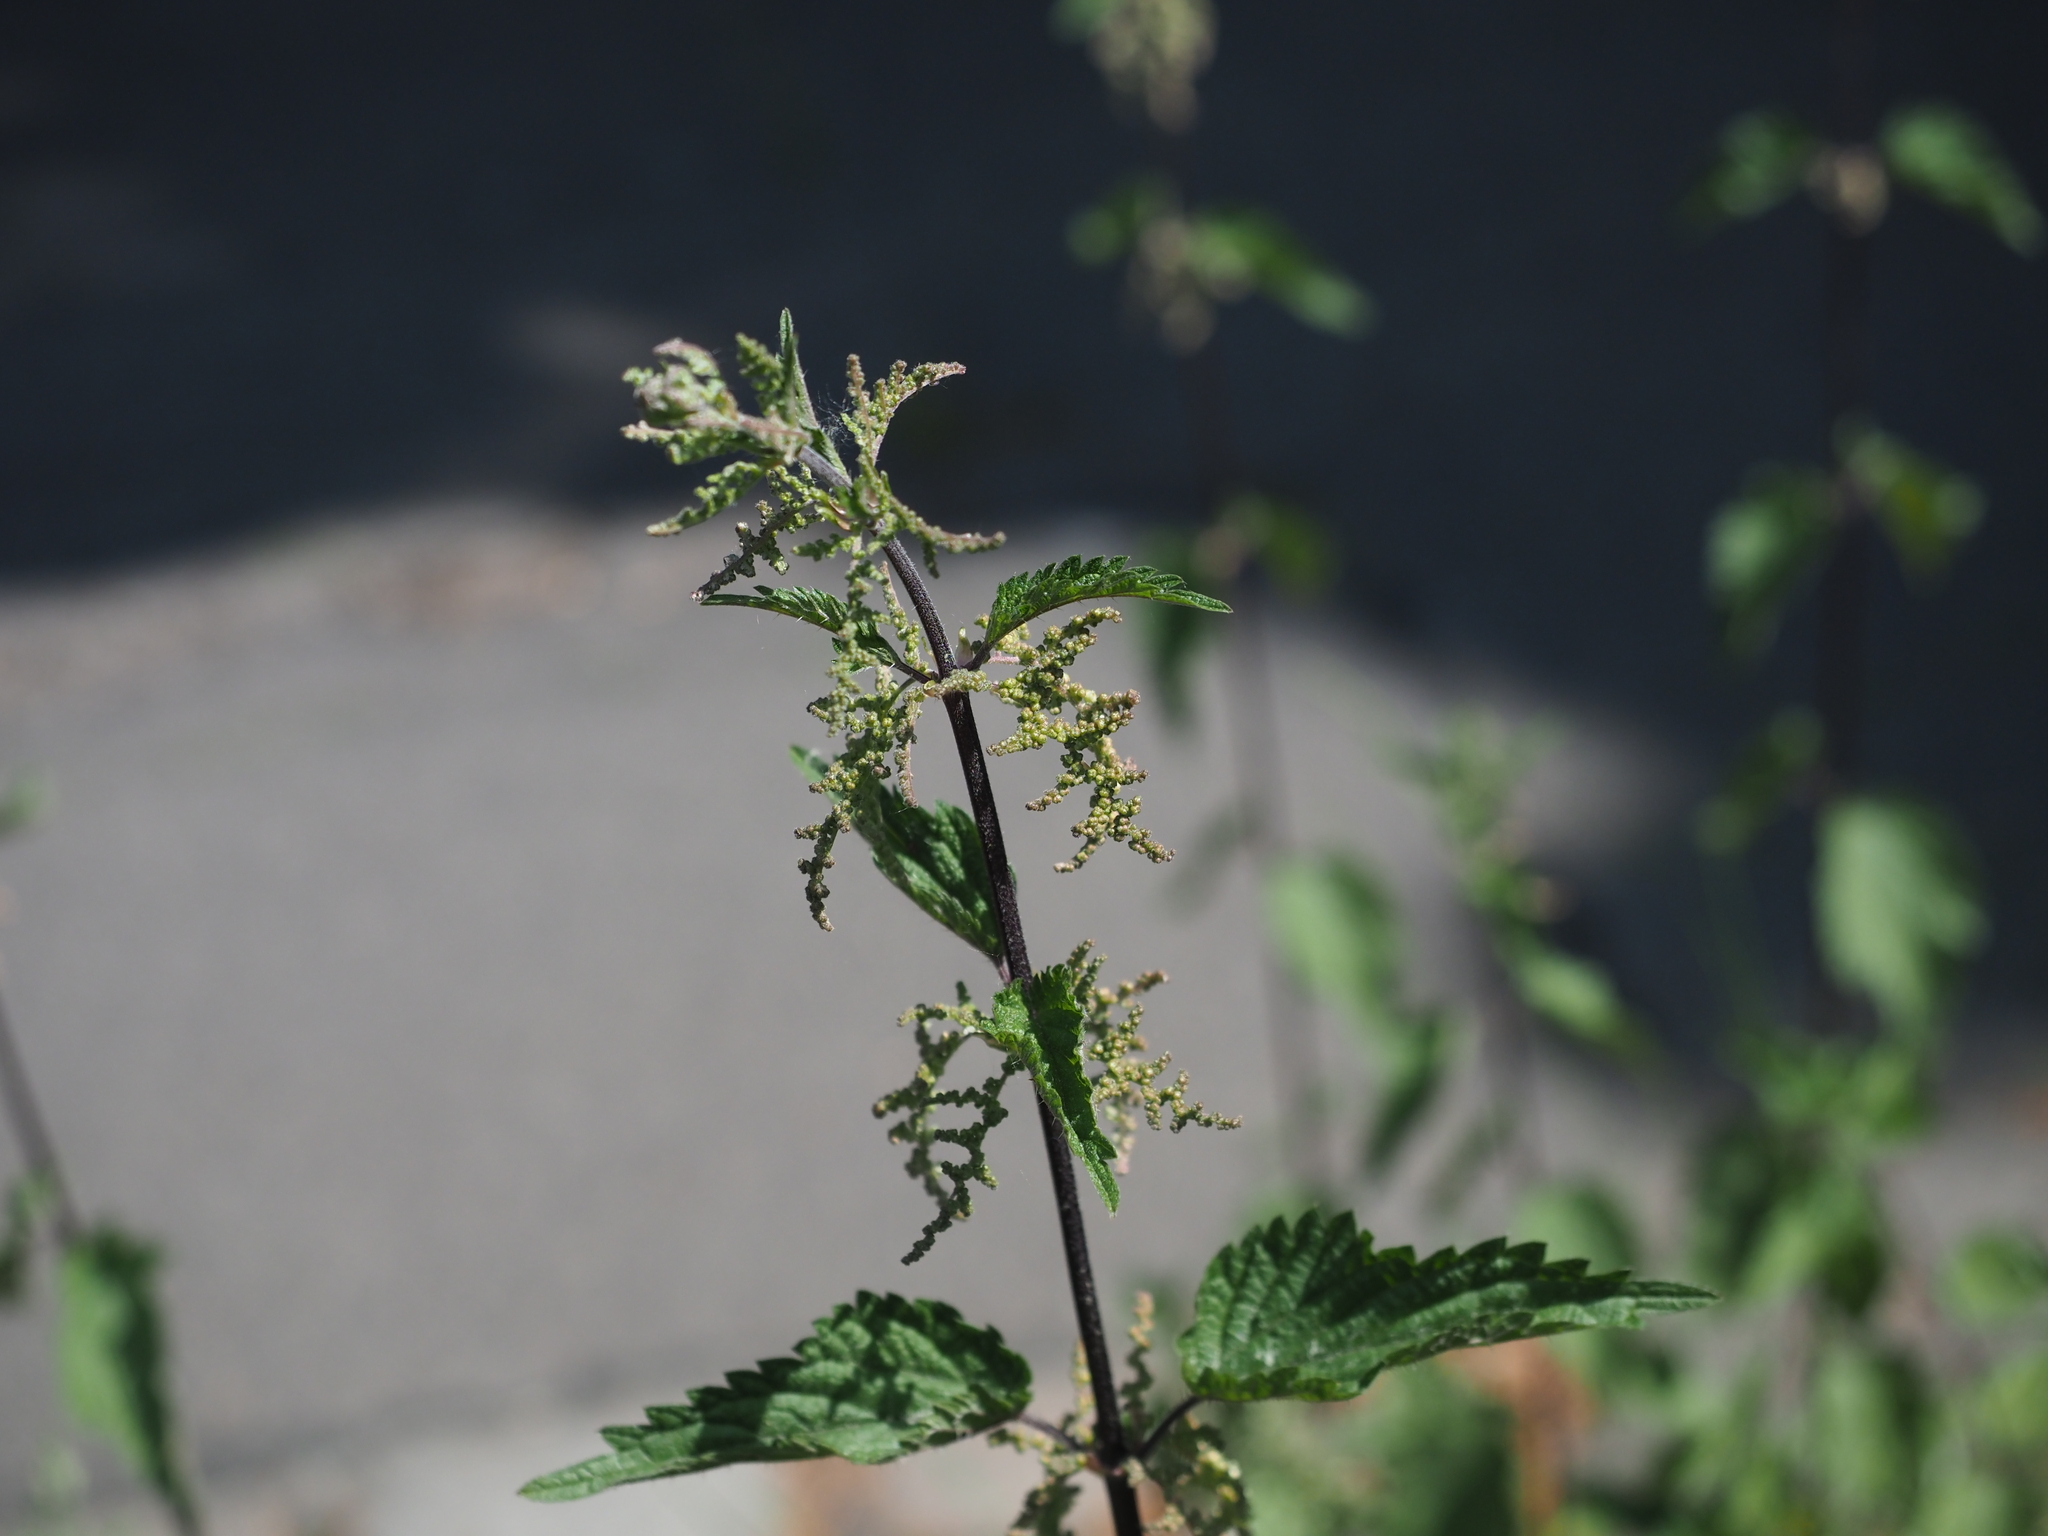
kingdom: Plantae
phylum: Tracheophyta
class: Magnoliopsida
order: Rosales
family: Urticaceae
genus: Urtica
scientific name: Urtica dioica
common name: Common nettle
